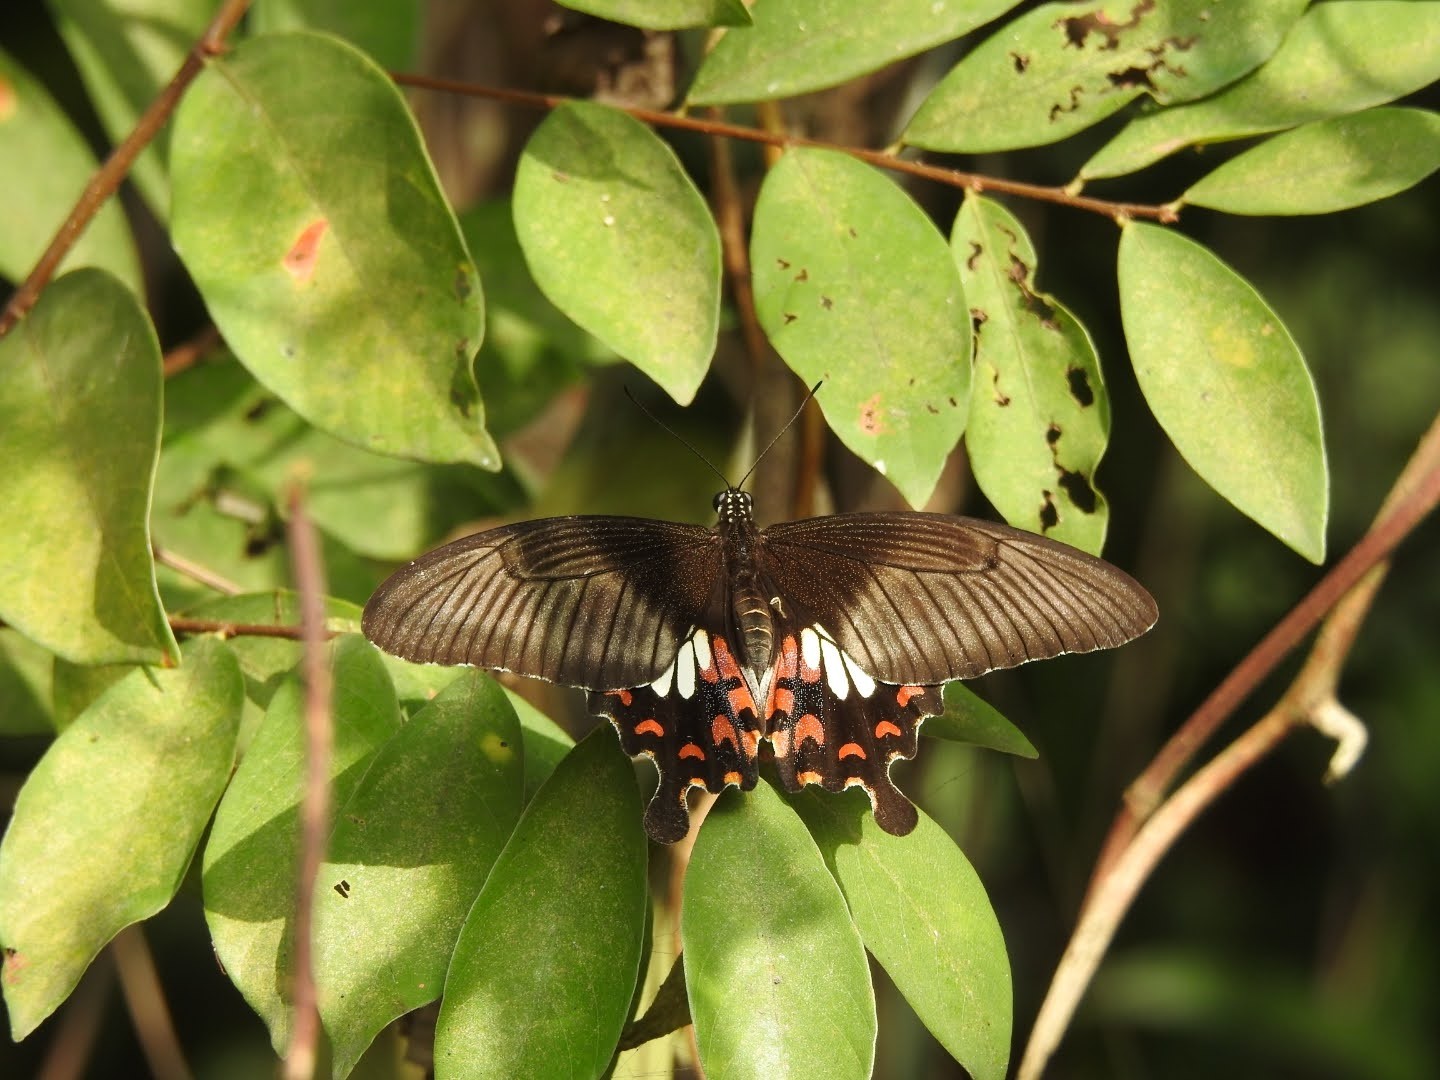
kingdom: Animalia
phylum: Arthropoda
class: Insecta
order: Lepidoptera
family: Papilionidae
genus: Papilio
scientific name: Papilio polytes
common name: Common mormon
